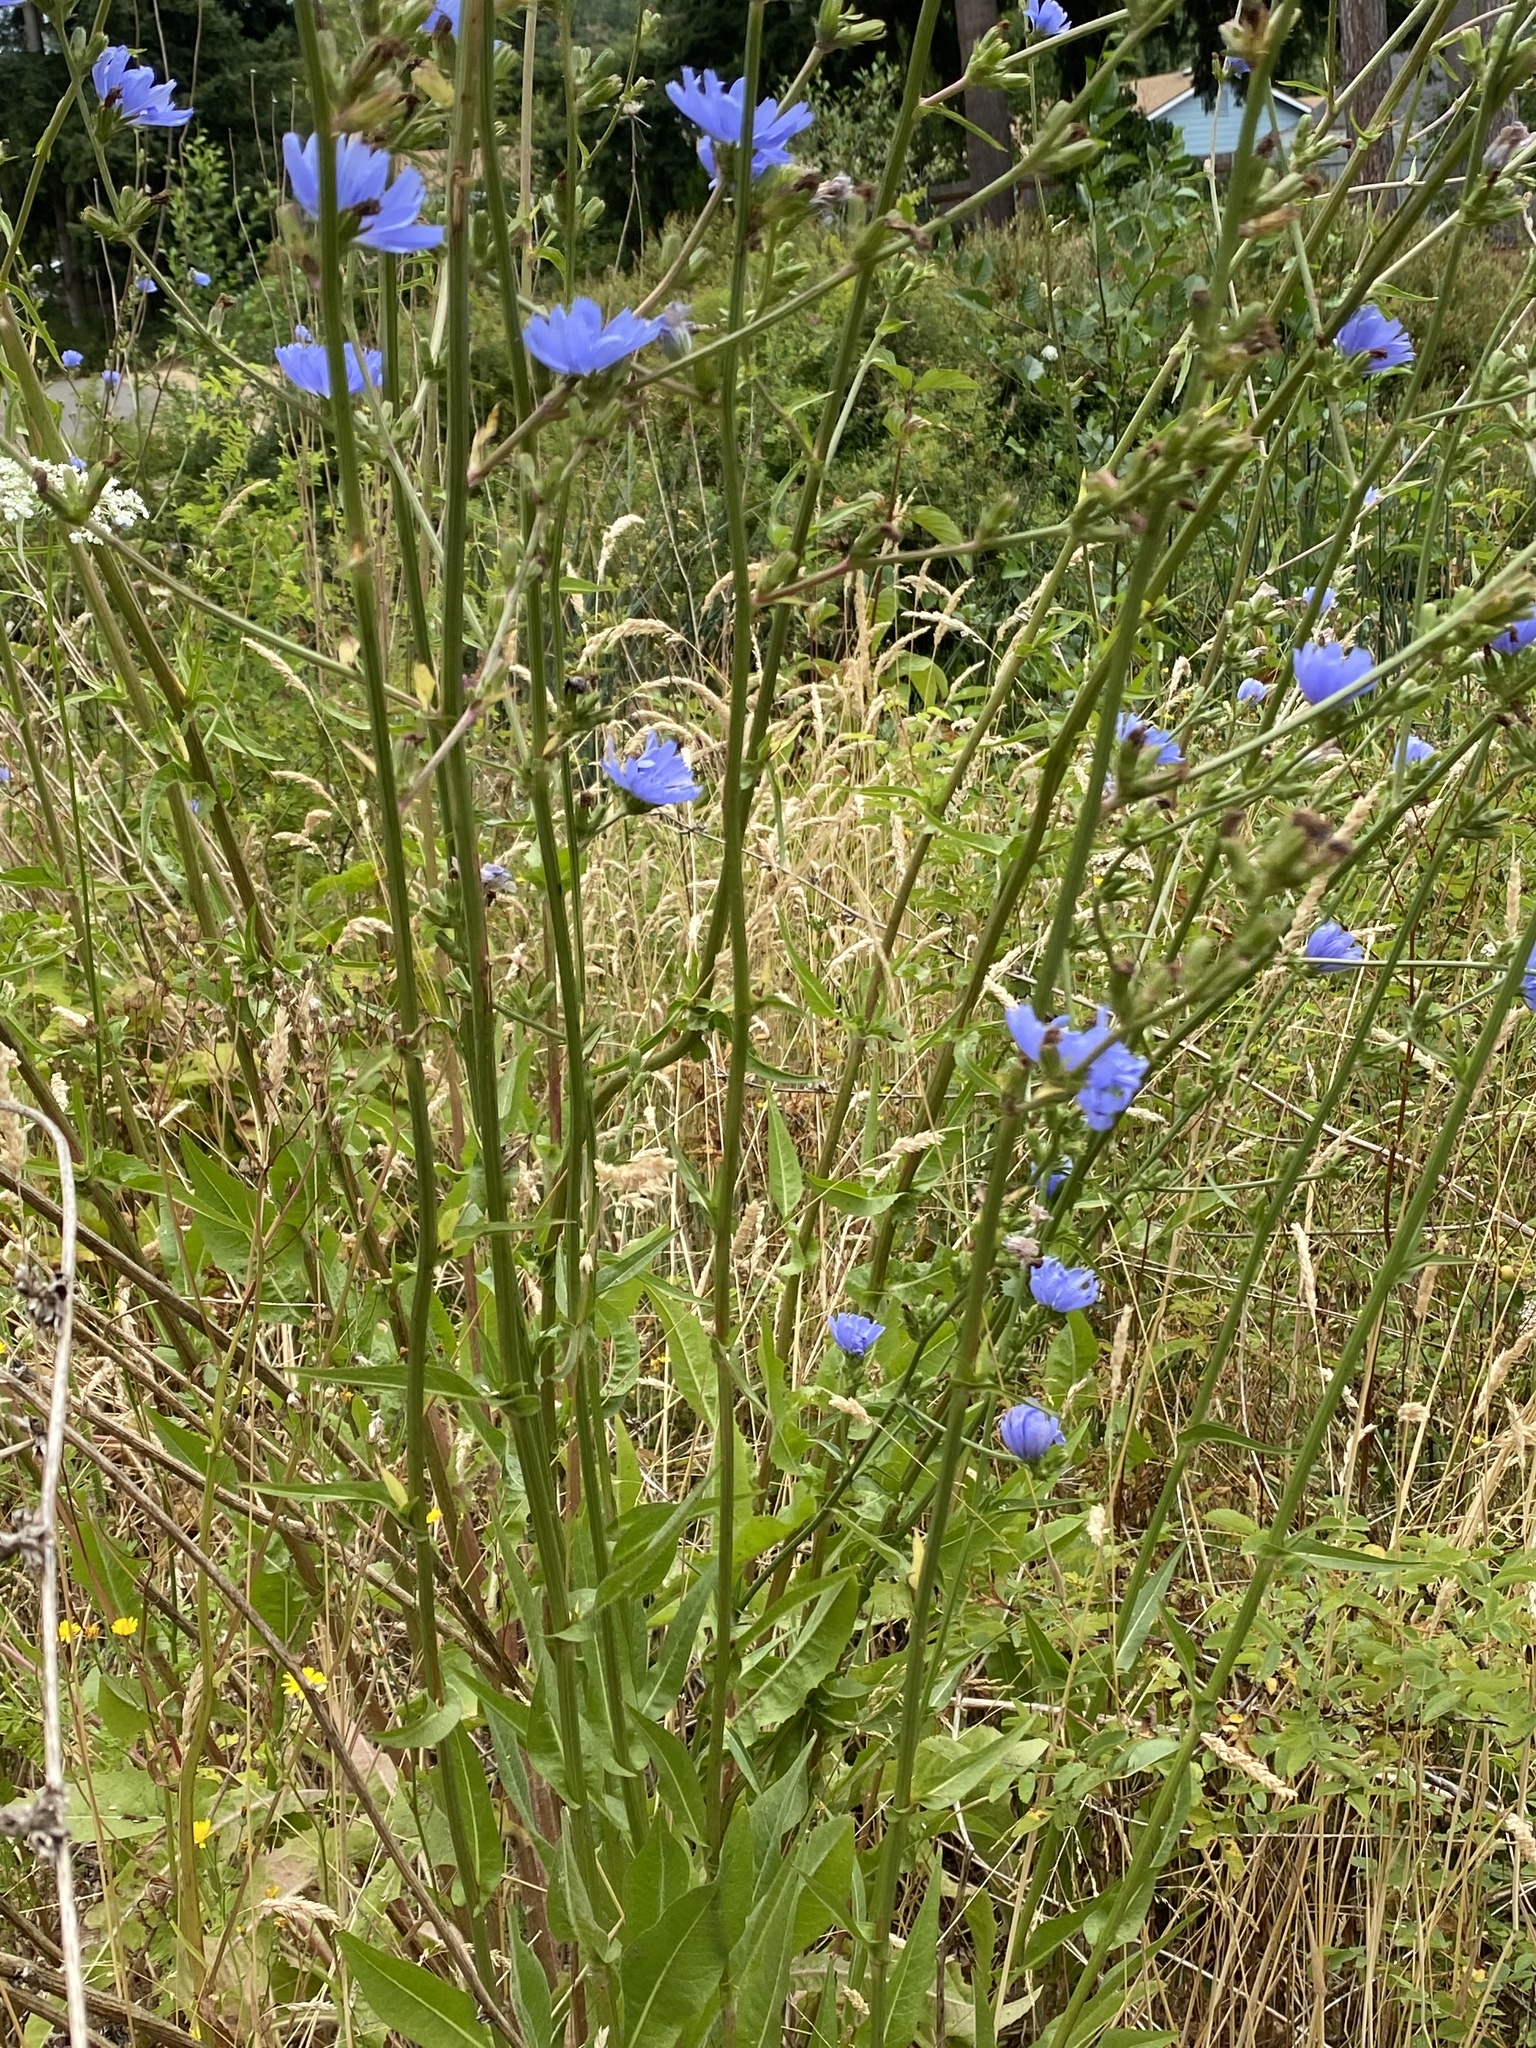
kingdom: Plantae
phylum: Tracheophyta
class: Magnoliopsida
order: Asterales
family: Asteraceae
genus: Cichorium
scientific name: Cichorium intybus
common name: Chicory
